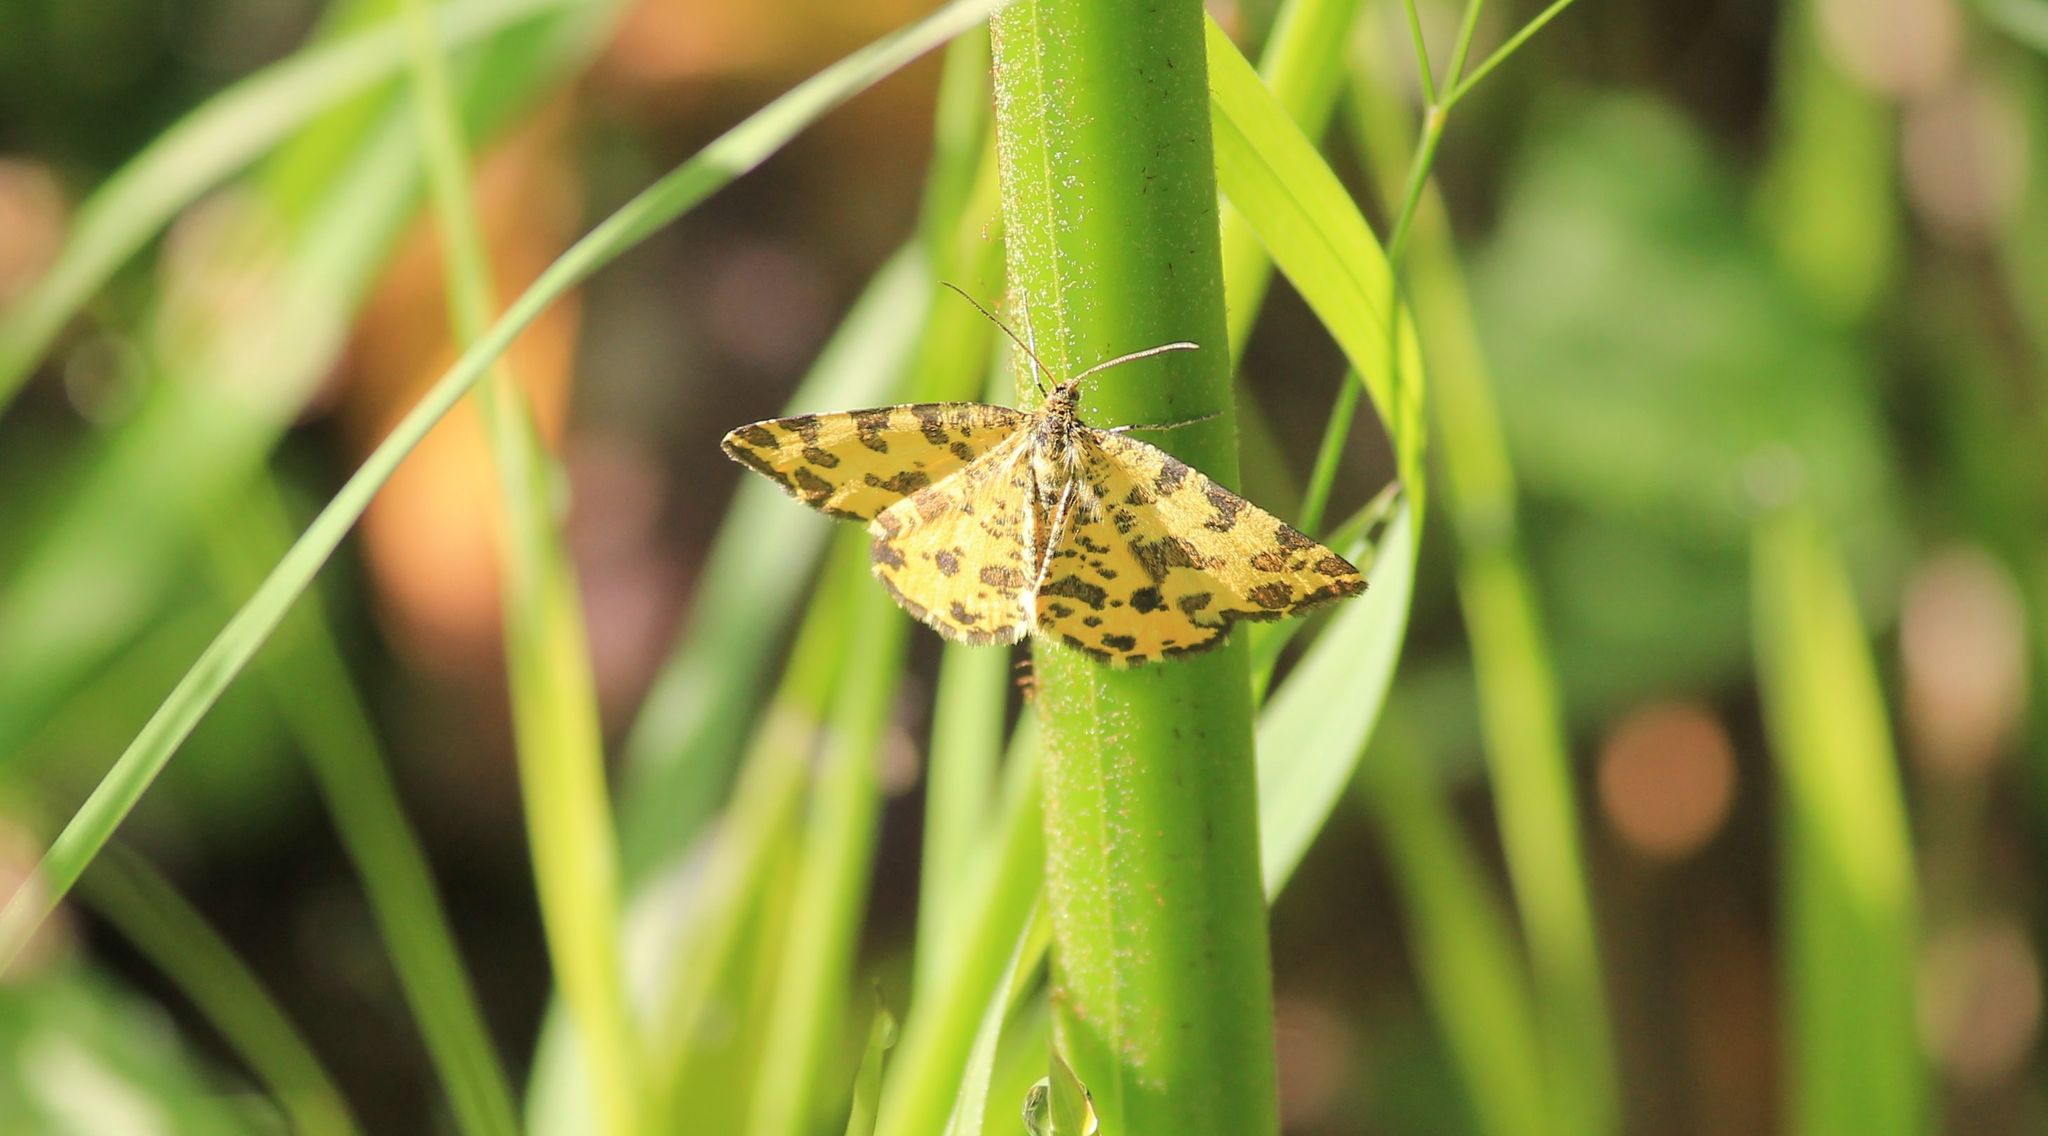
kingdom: Animalia
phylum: Arthropoda
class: Insecta
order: Lepidoptera
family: Geometridae
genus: Pseudopanthera
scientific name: Pseudopanthera macularia
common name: Speckled yellow
